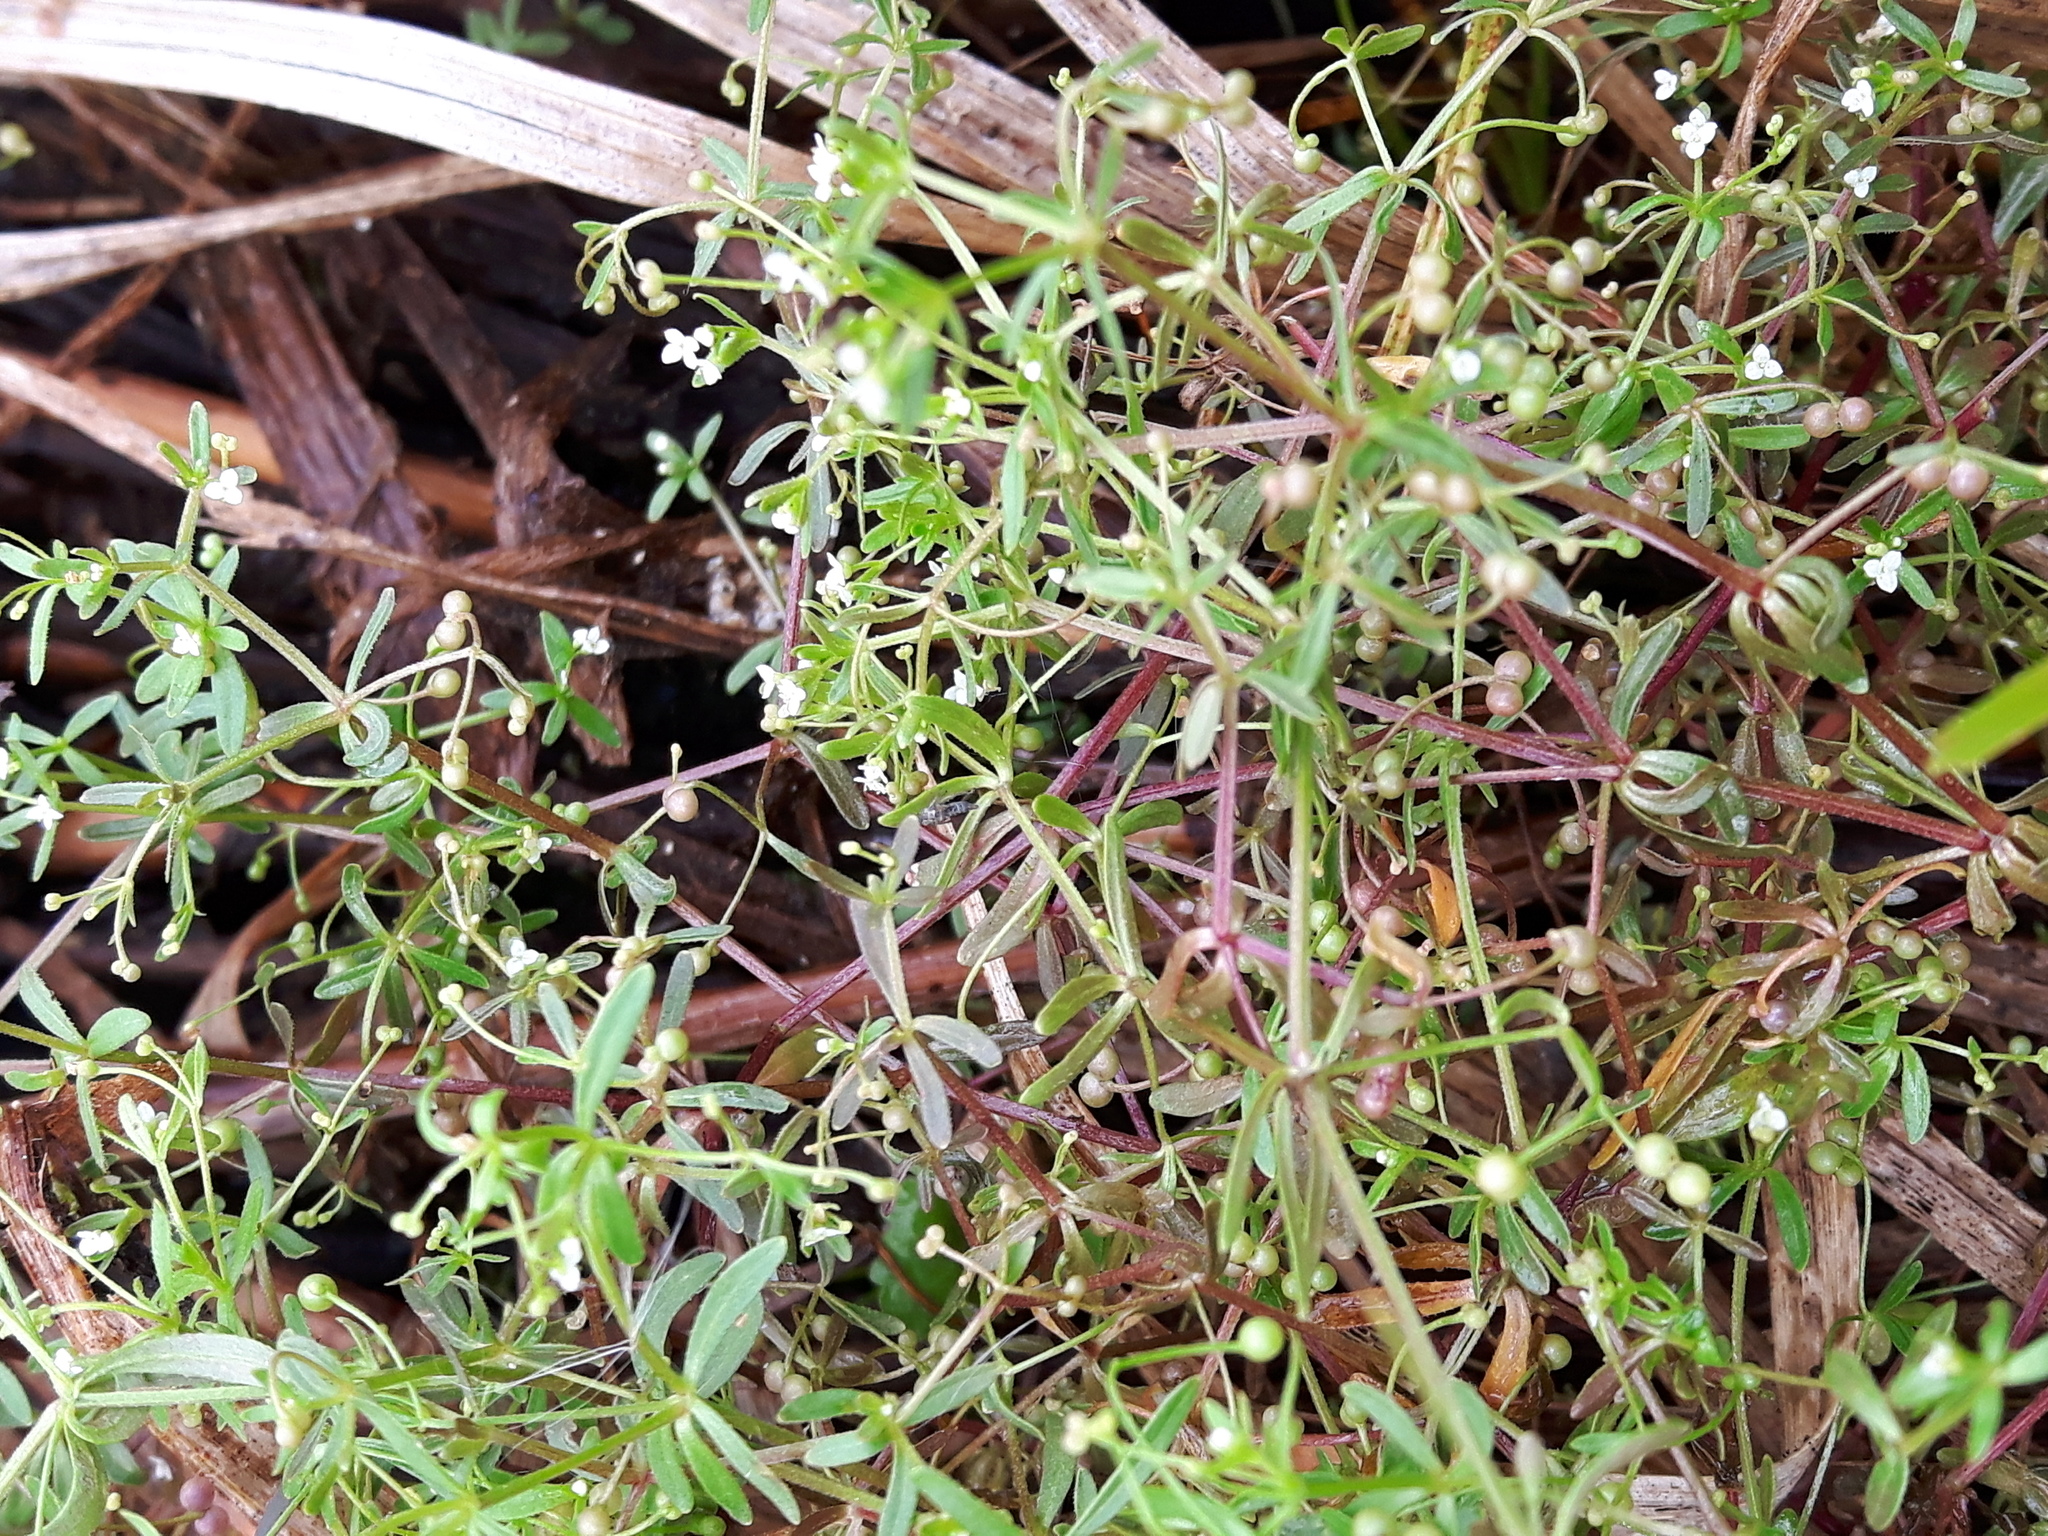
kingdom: Plantae
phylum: Tracheophyta
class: Magnoliopsida
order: Gentianales
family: Rubiaceae
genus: Galium
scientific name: Galium trifidum
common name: Small bedstraw
